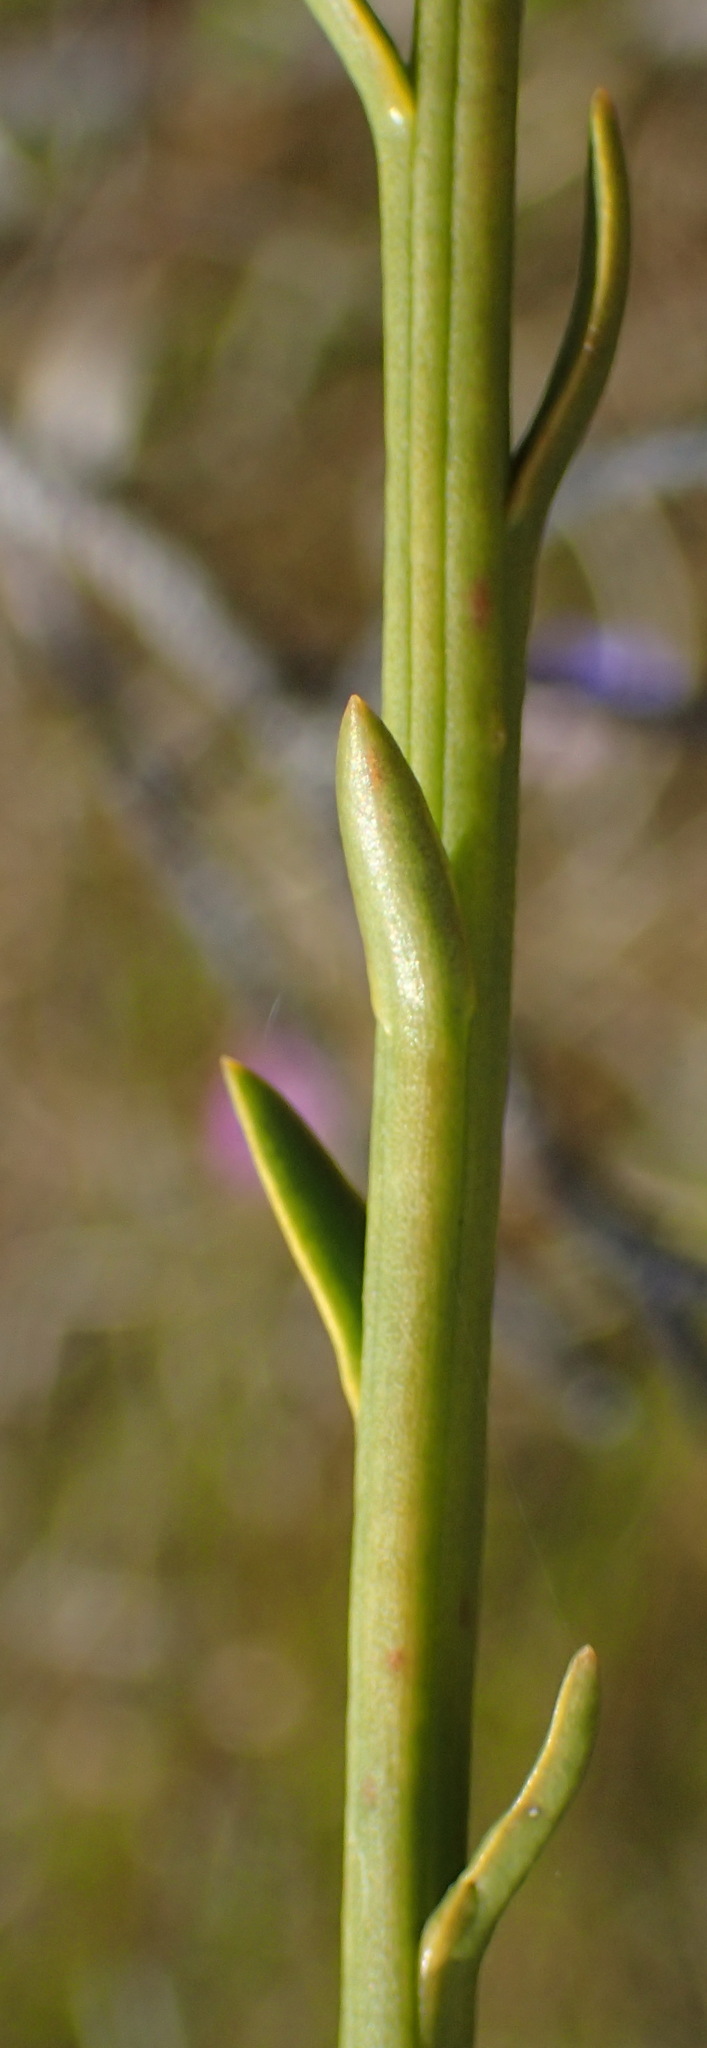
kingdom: Plantae
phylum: Tracheophyta
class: Magnoliopsida
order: Santalales
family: Thesiaceae
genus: Thesium
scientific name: Thesium strictum
